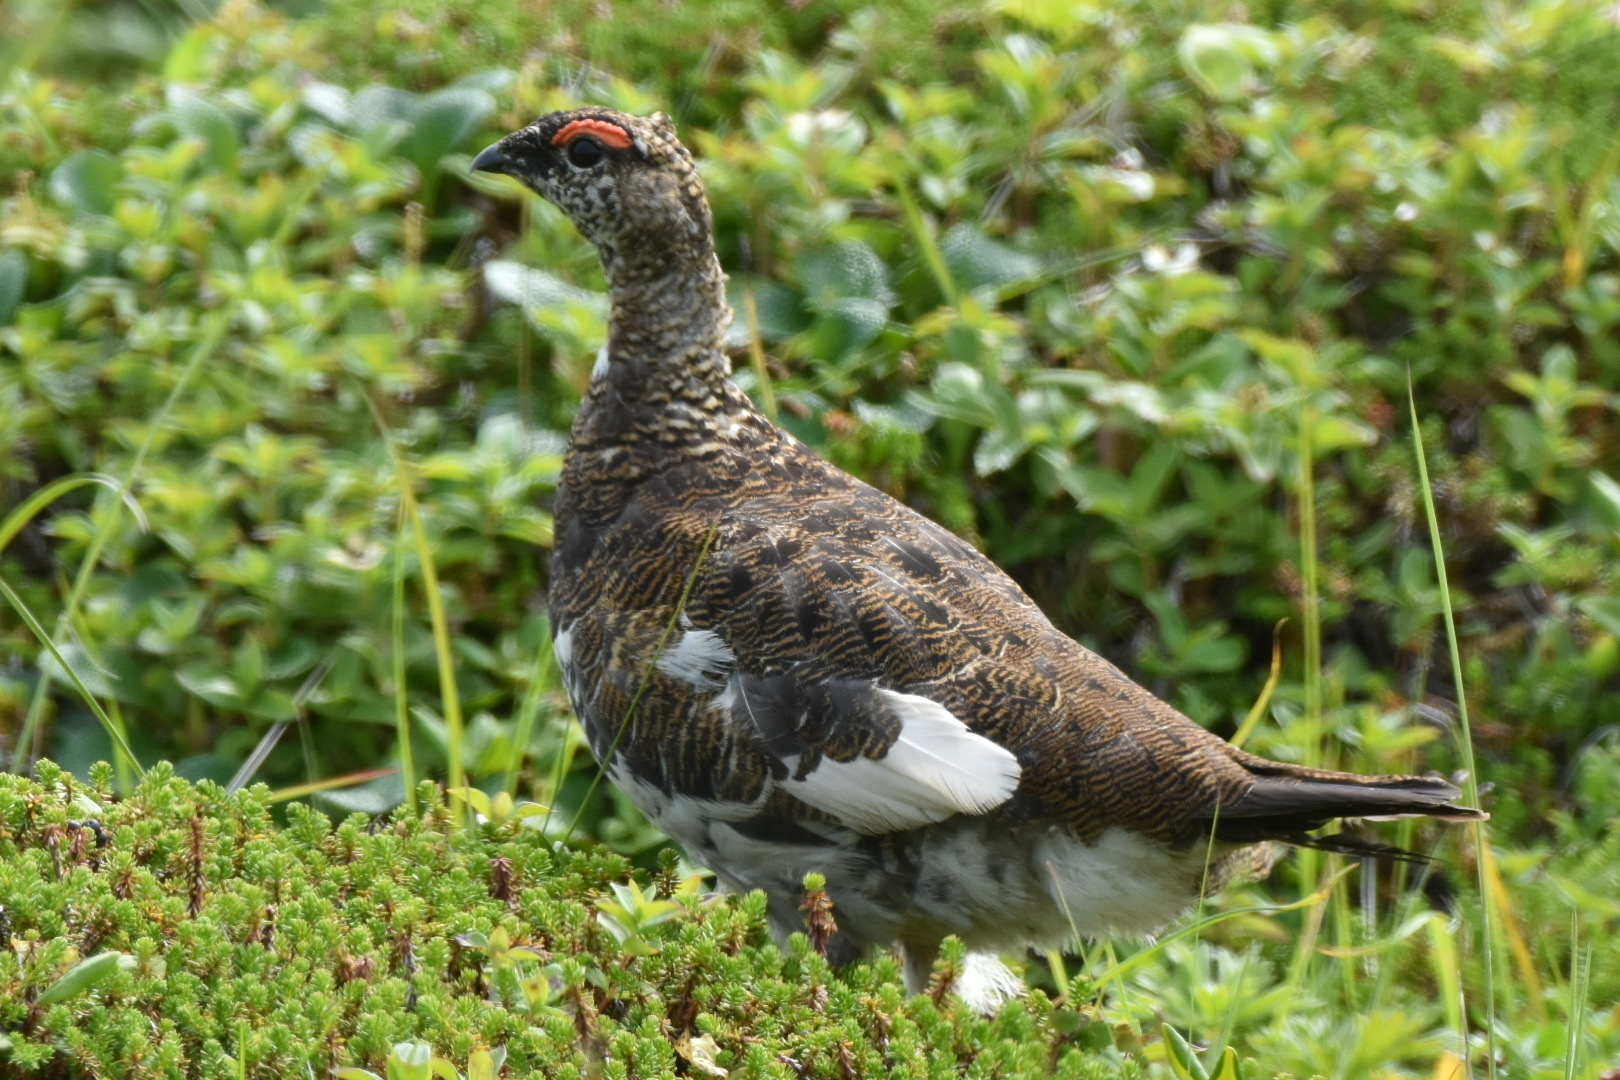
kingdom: Animalia
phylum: Chordata
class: Aves
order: Galliformes
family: Phasianidae
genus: Lagopus
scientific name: Lagopus muta
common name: Rock ptarmigan
